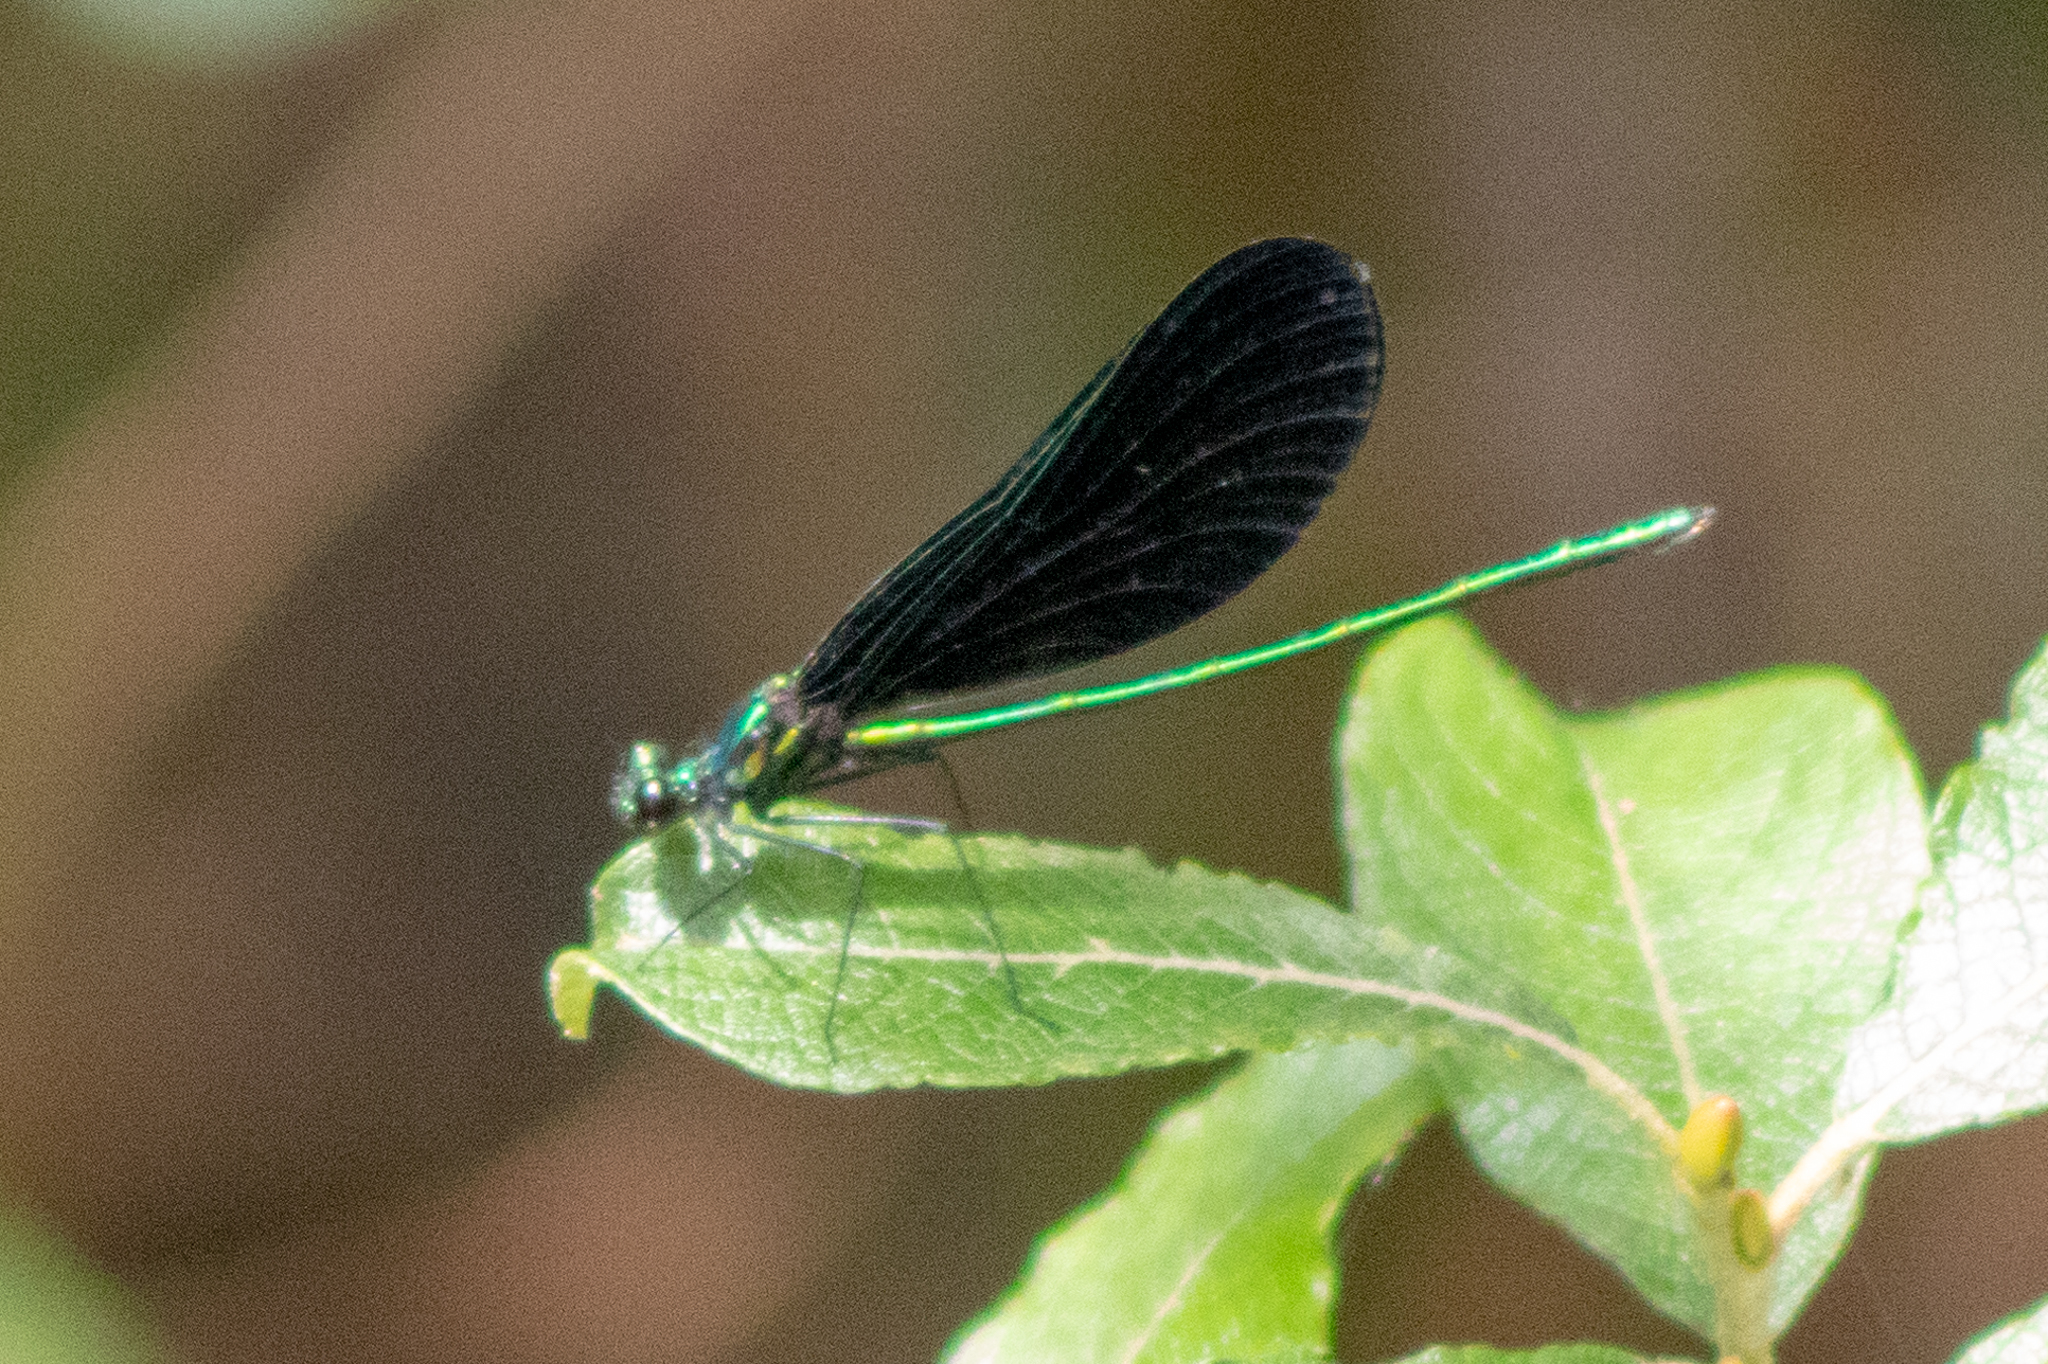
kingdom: Animalia
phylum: Arthropoda
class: Insecta
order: Odonata
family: Calopterygidae
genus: Calopteryx
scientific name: Calopteryx maculata
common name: Ebony jewelwing
